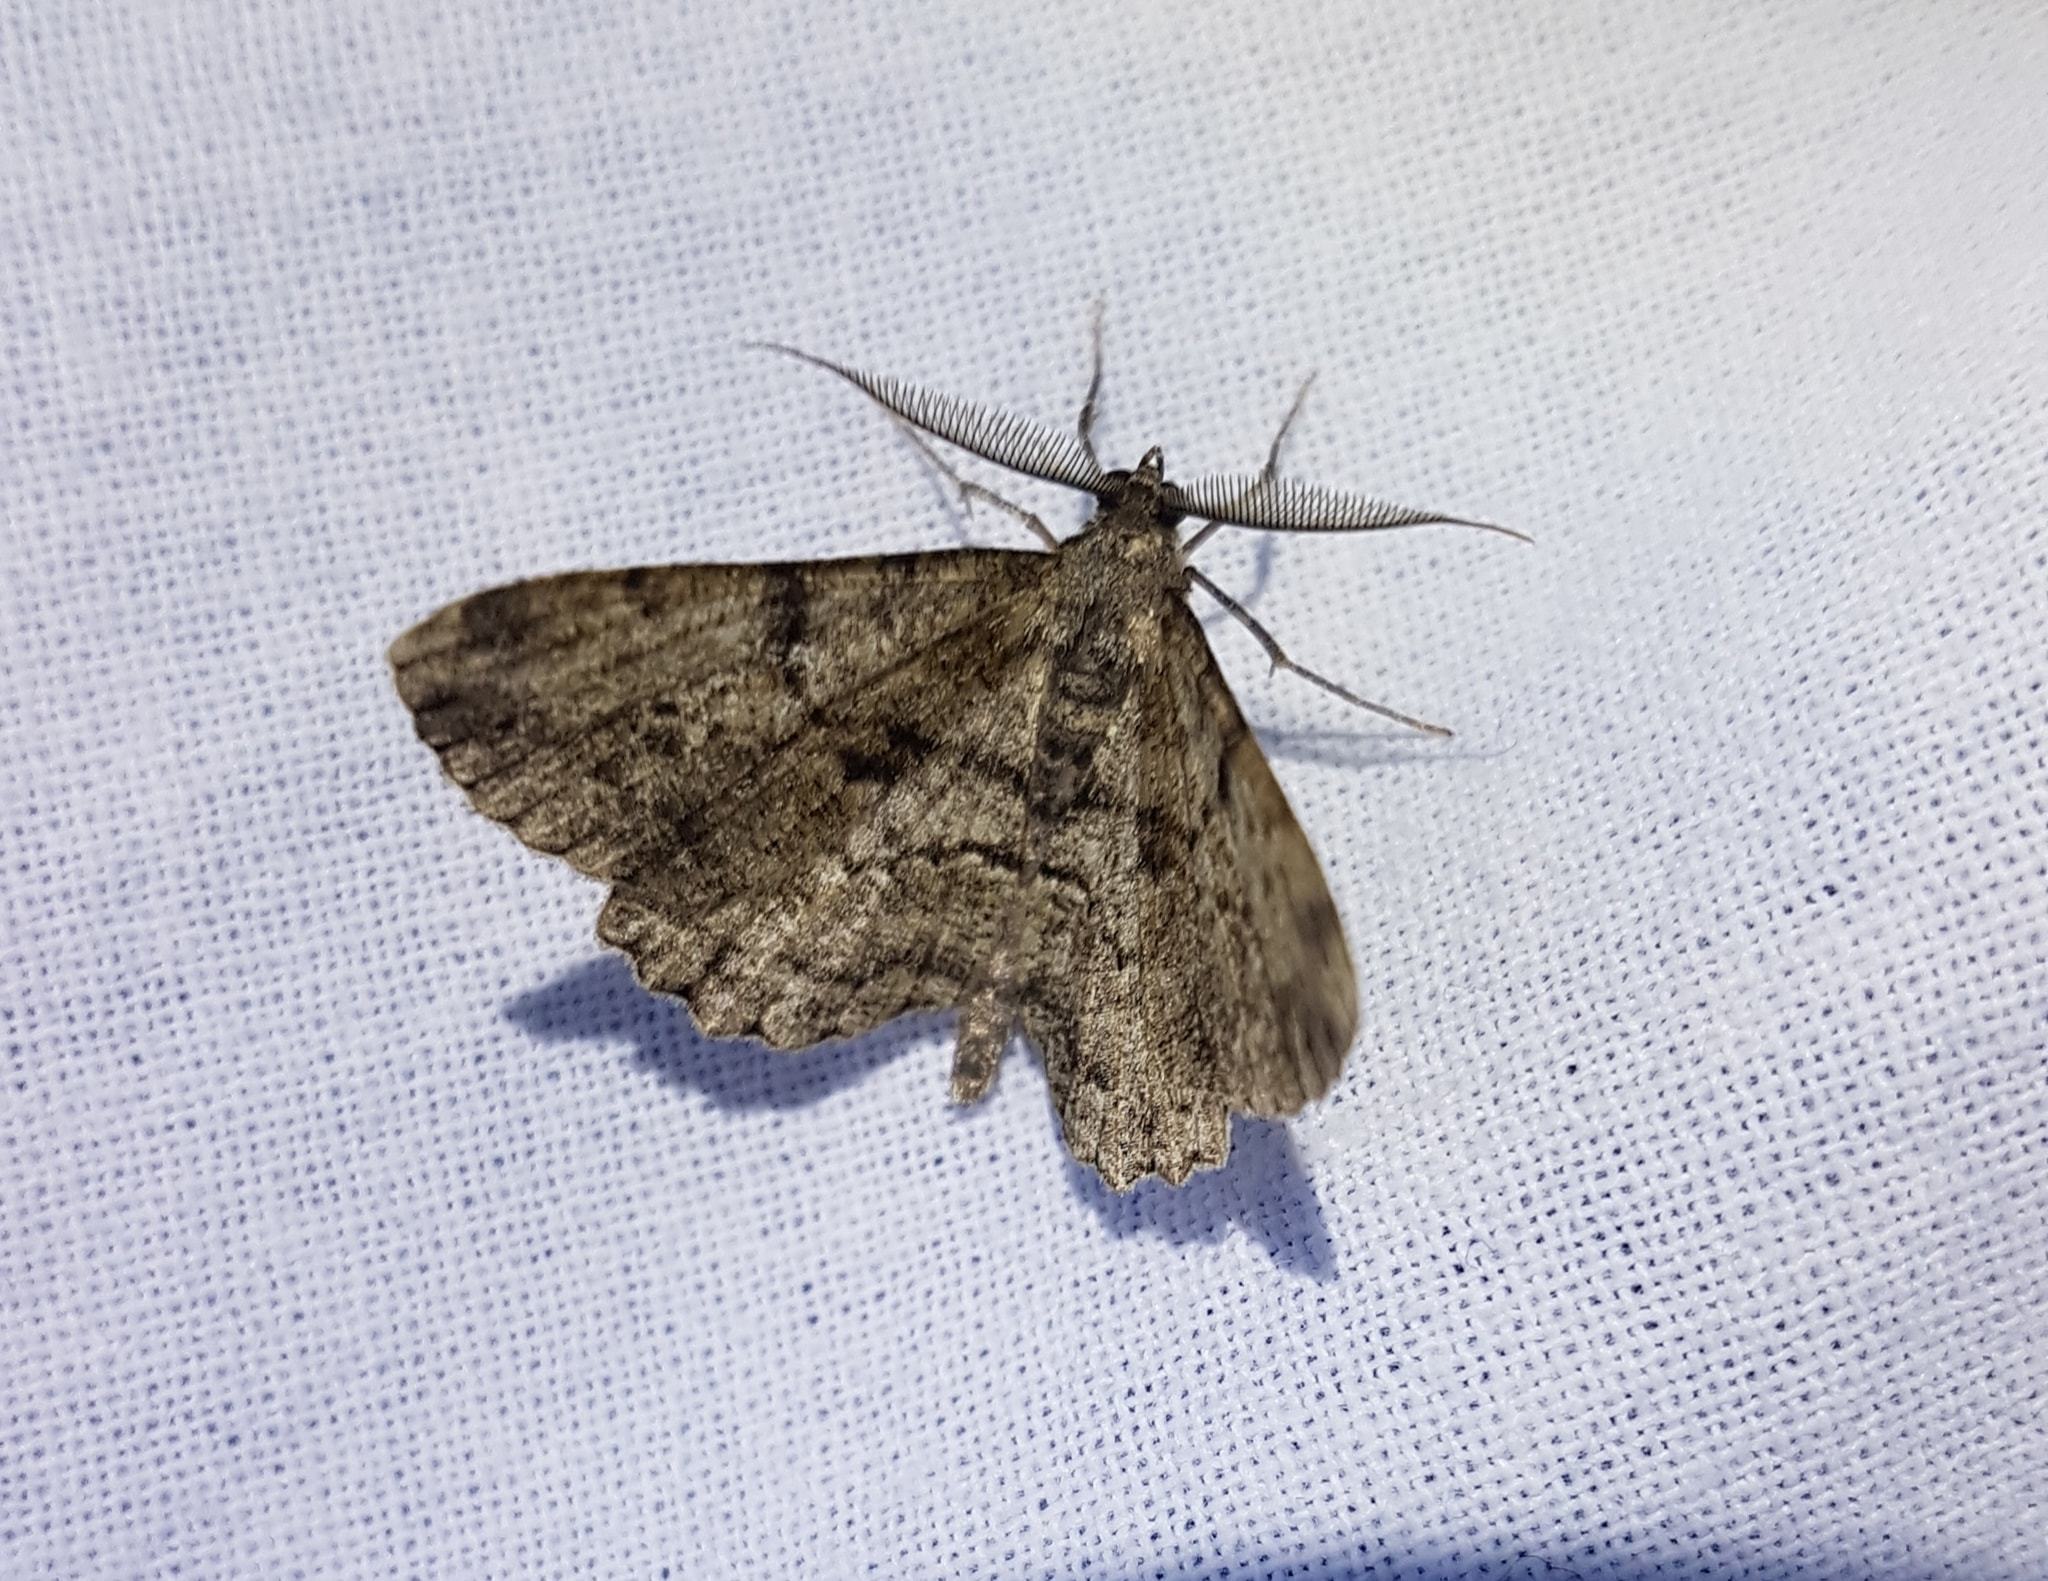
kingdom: Animalia
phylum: Arthropoda
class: Insecta
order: Lepidoptera
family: Geometridae
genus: Peribatodes
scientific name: Peribatodes rhomboidaria
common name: Willow beauty
